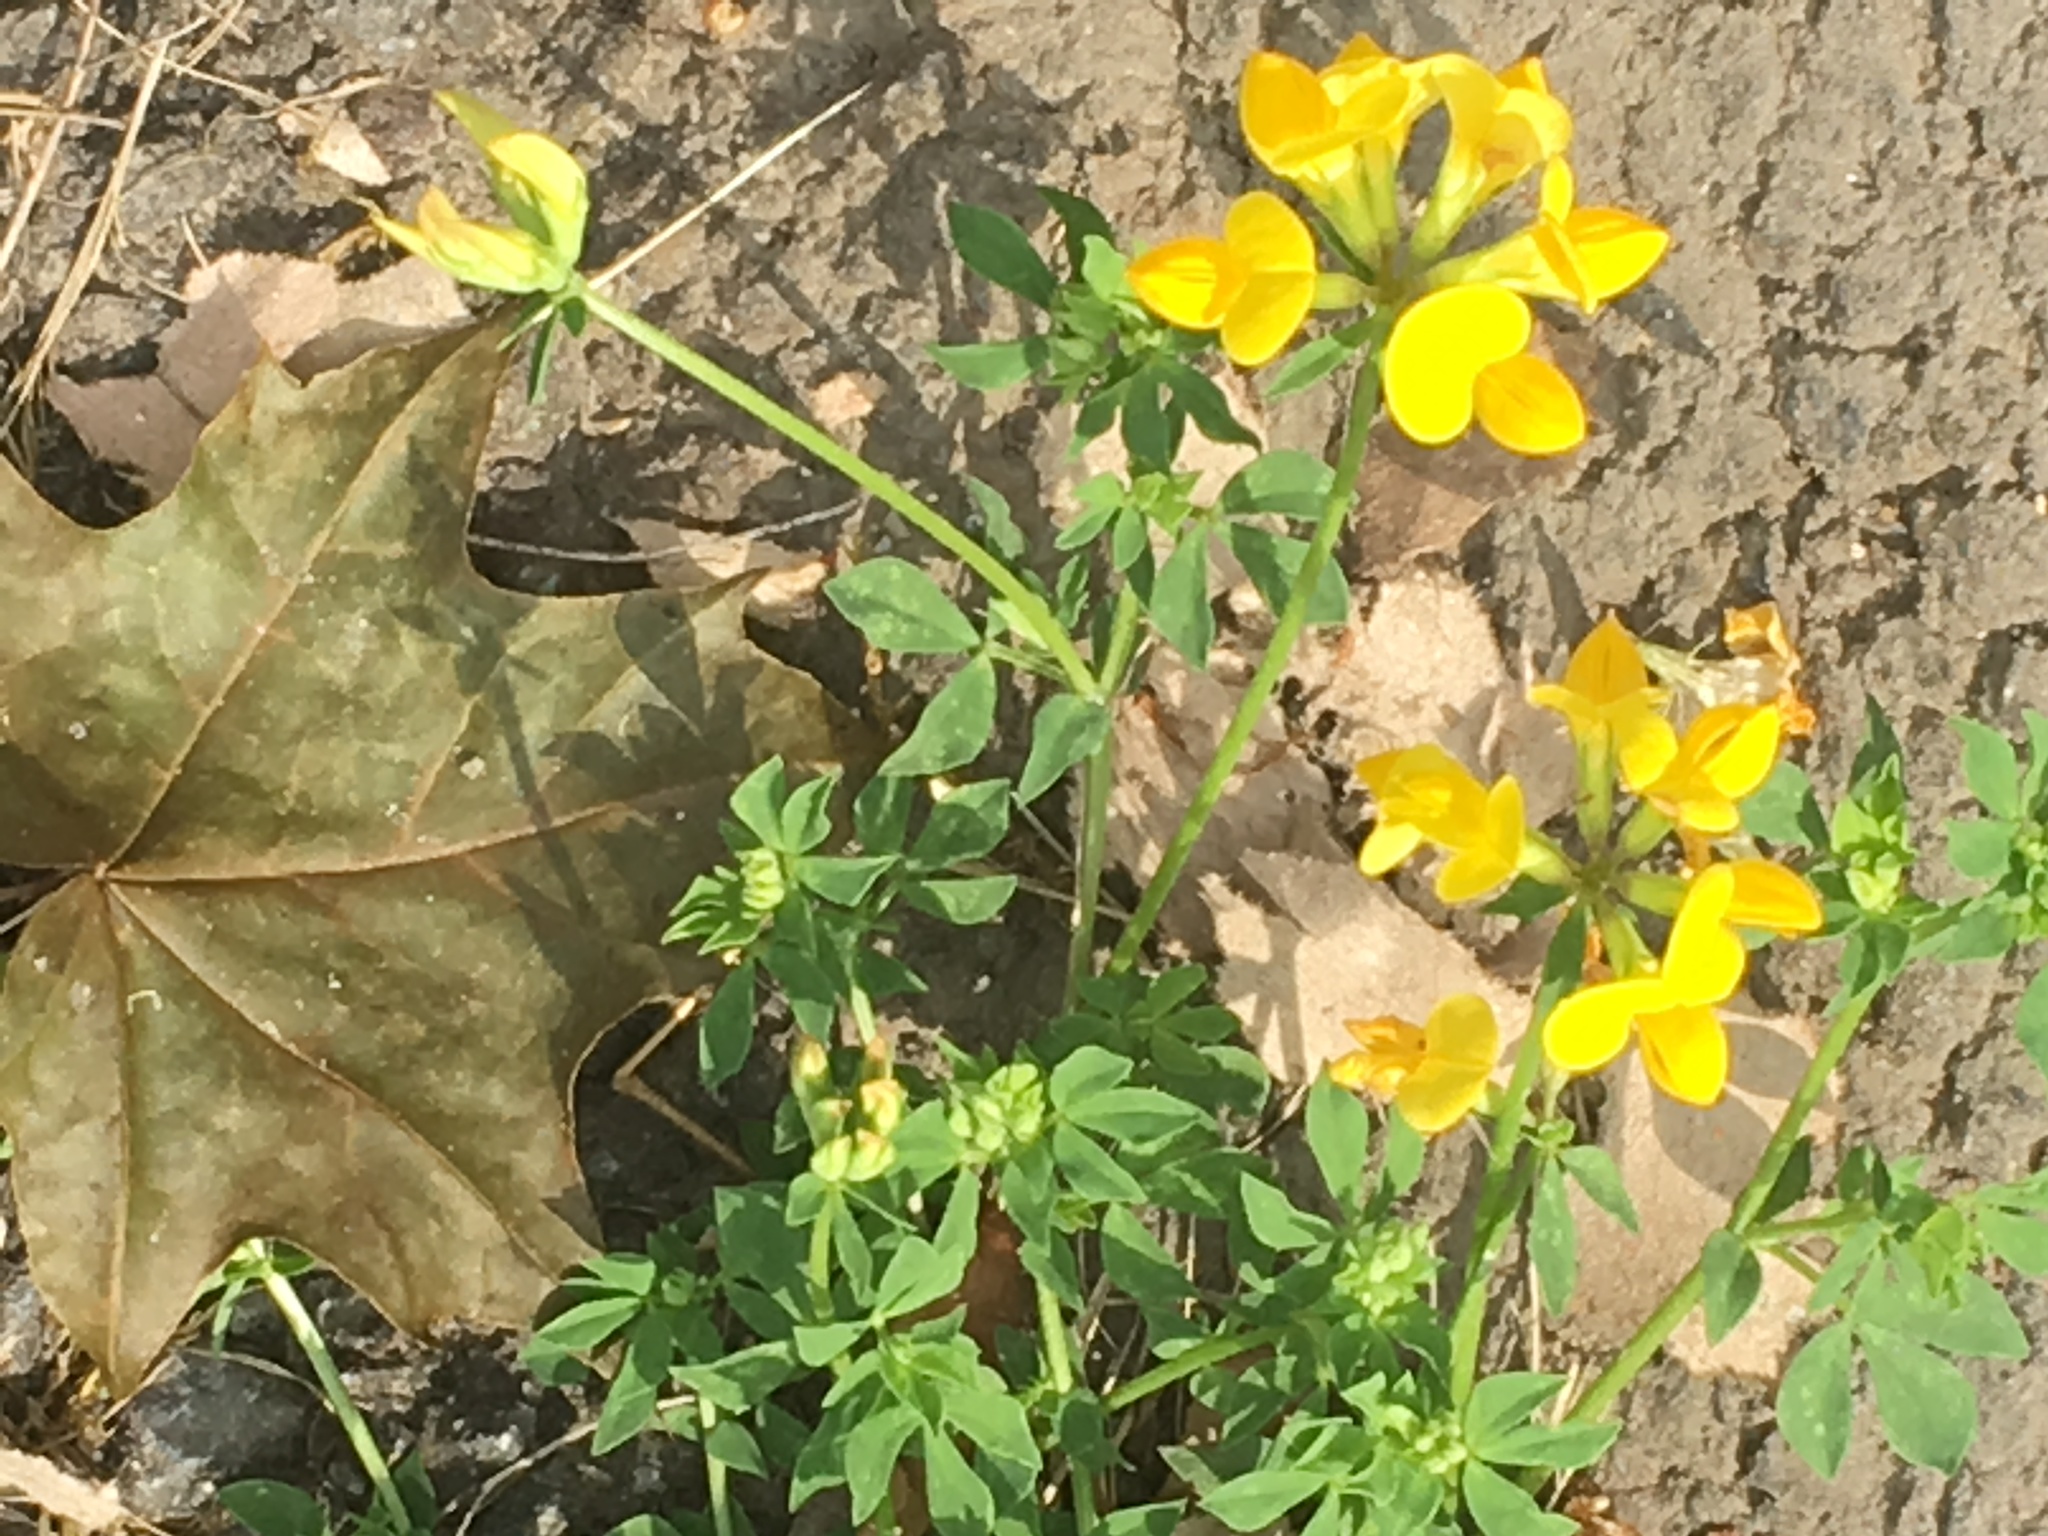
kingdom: Plantae
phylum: Tracheophyta
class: Magnoliopsida
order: Fabales
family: Fabaceae
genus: Lotus
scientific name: Lotus corniculatus
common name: Common bird's-foot-trefoil
